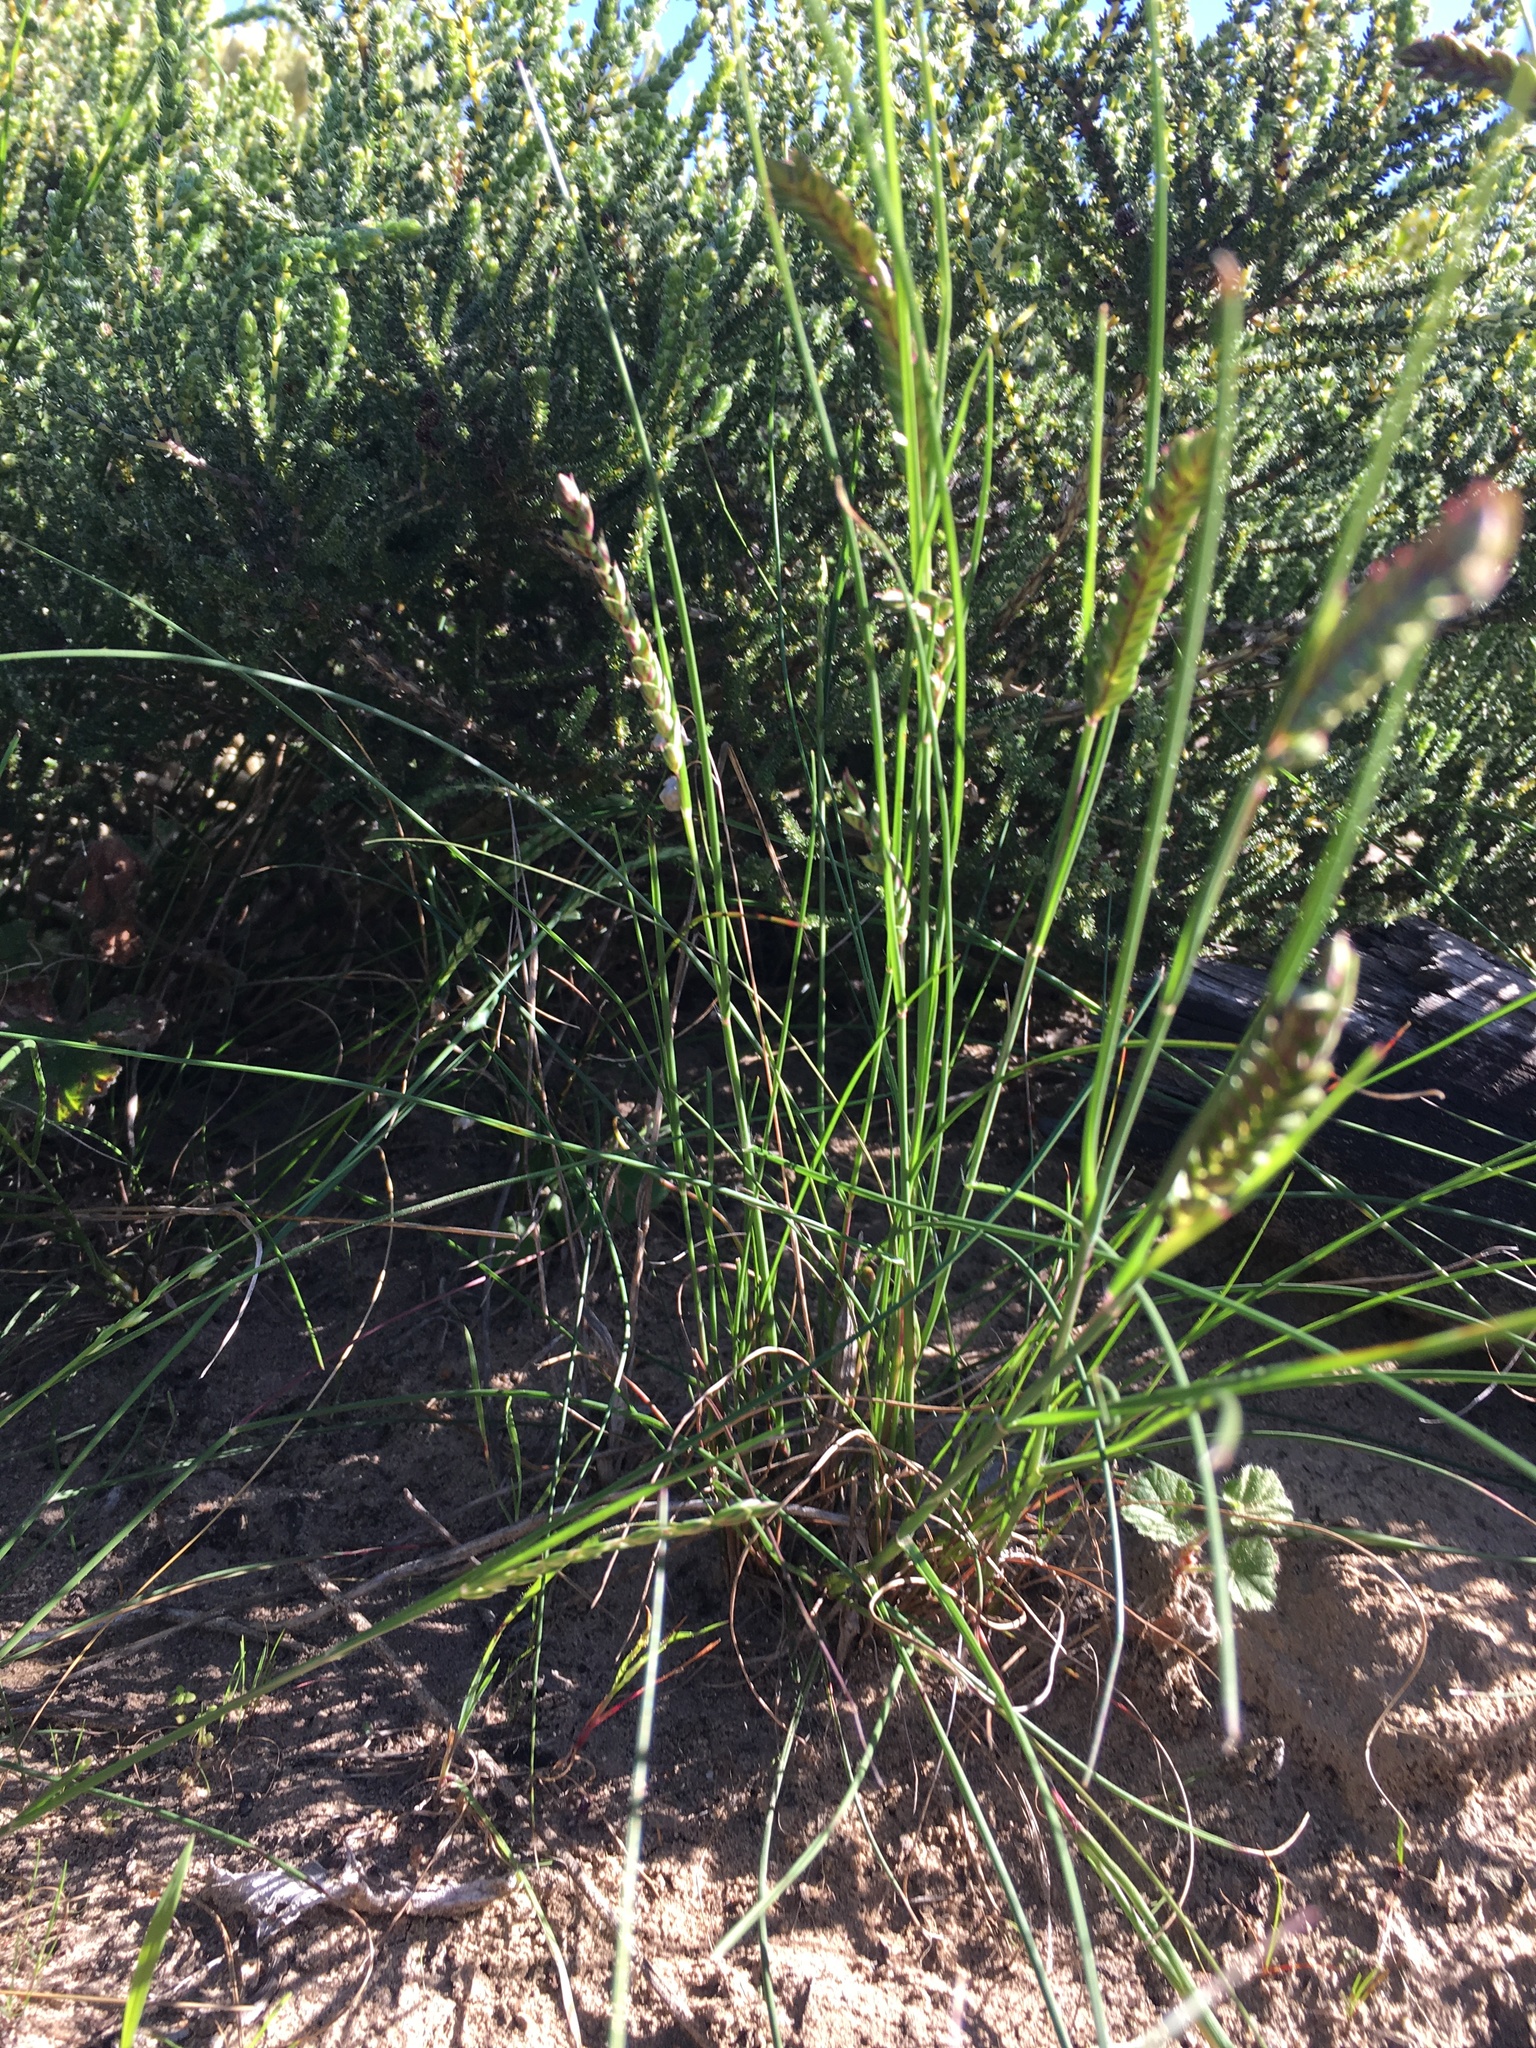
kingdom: Plantae
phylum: Tracheophyta
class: Liliopsida
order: Poales
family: Poaceae
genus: Tribolium
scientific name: Tribolium uniolae
